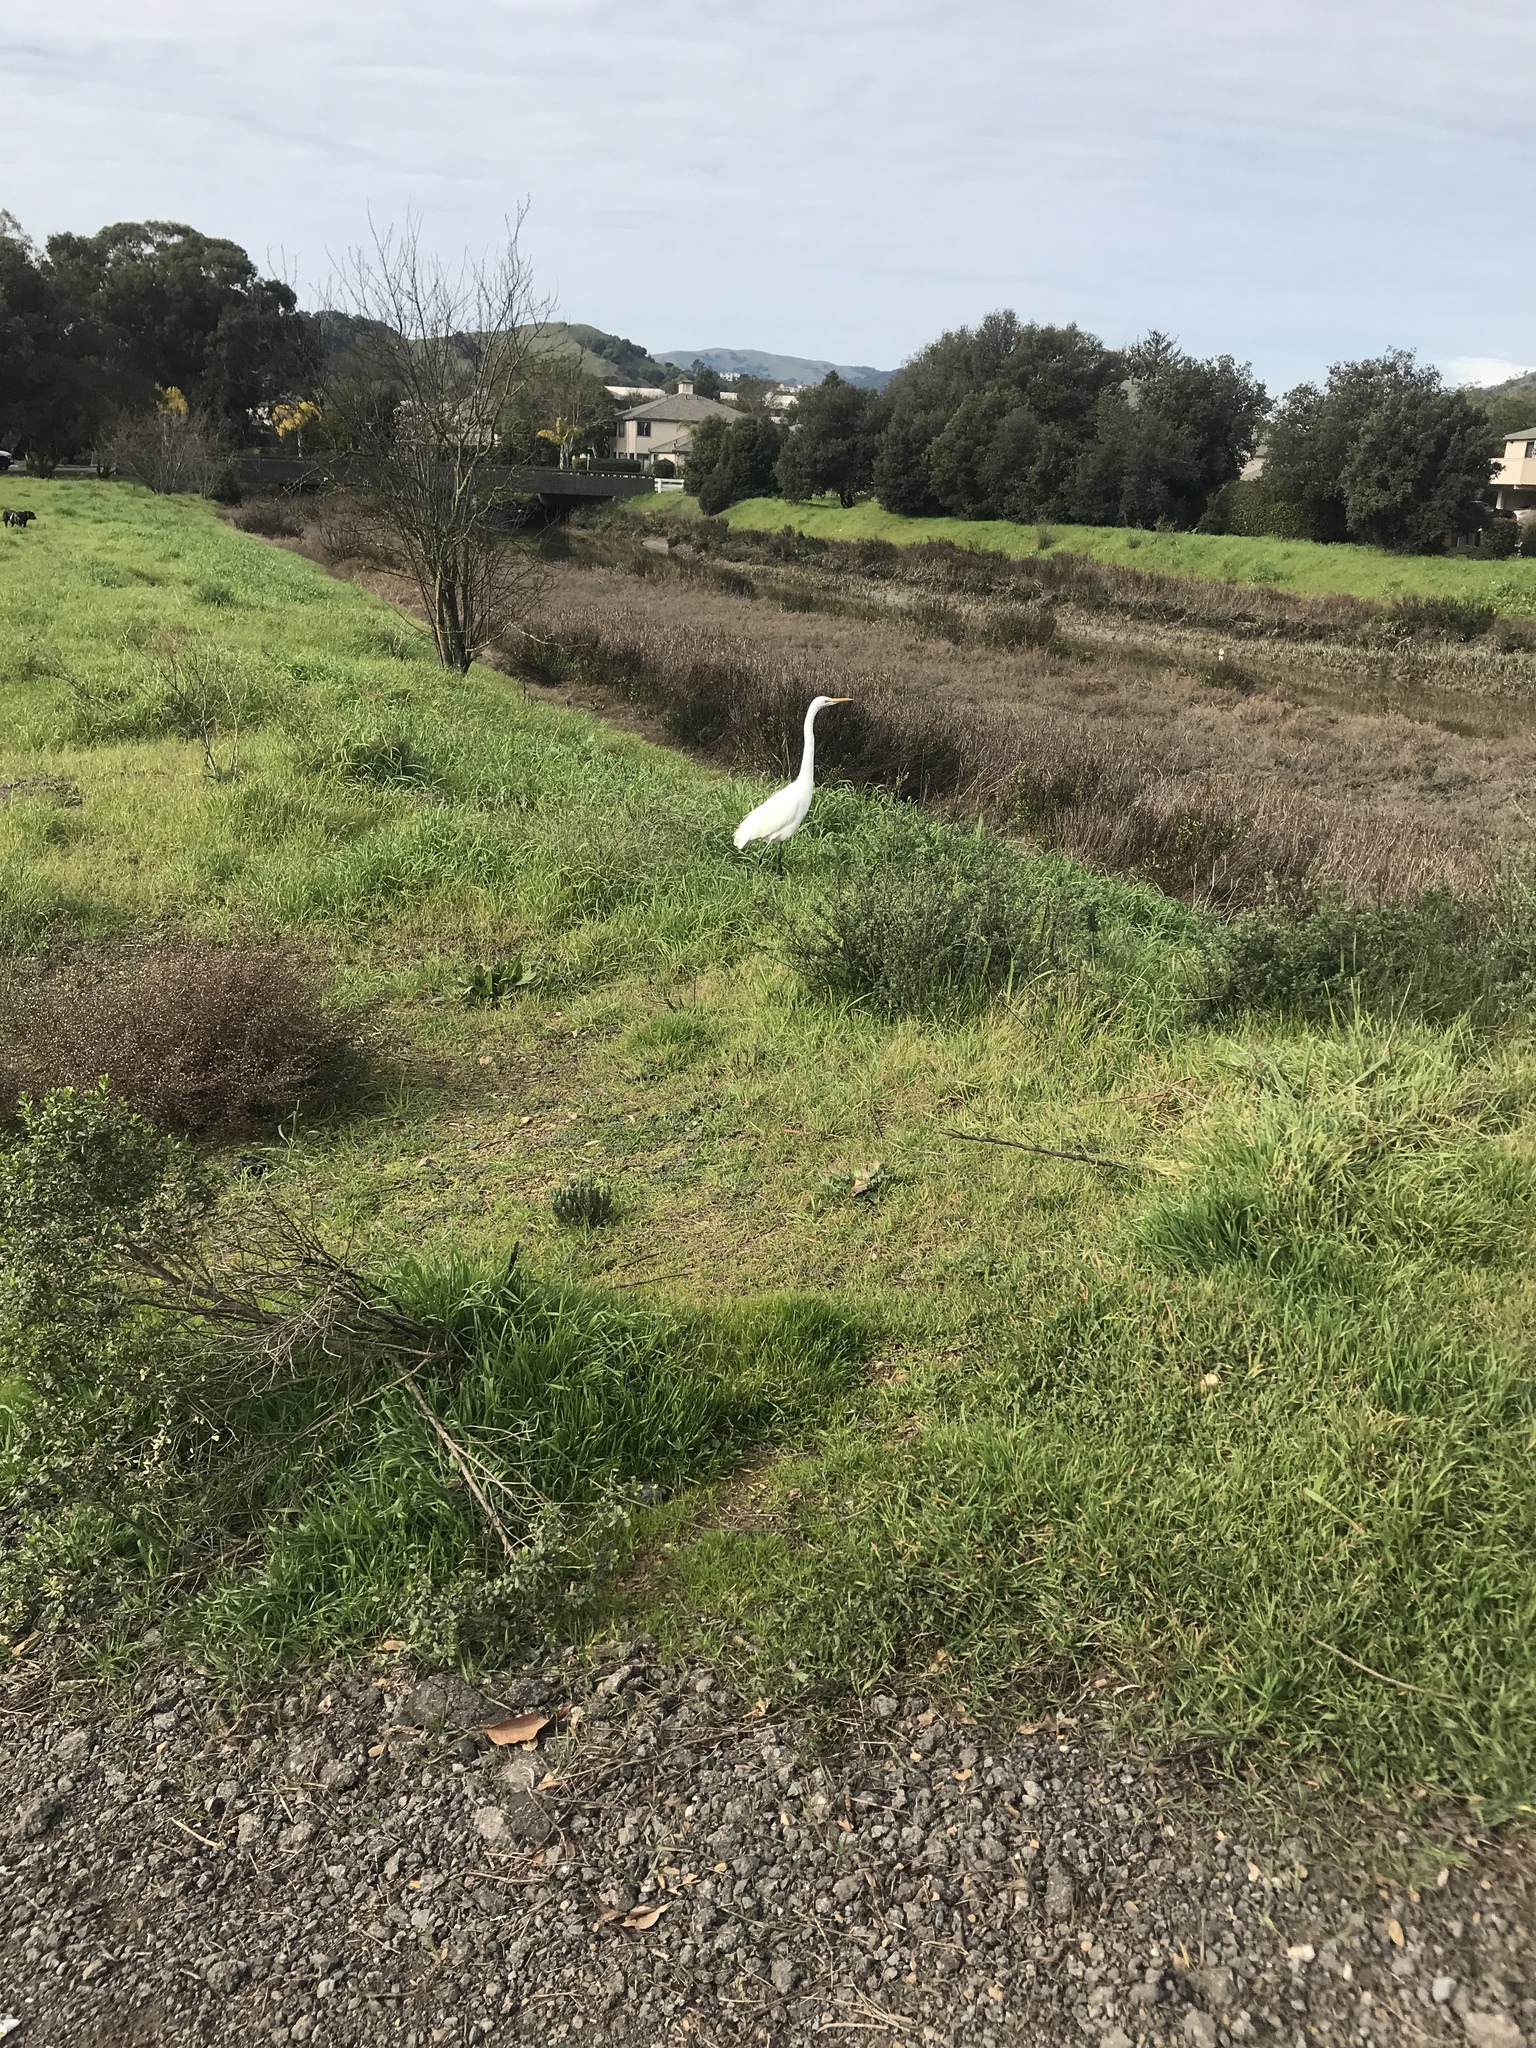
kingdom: Animalia
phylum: Chordata
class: Aves
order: Pelecaniformes
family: Ardeidae
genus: Ardea
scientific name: Ardea alba
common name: Great egret
